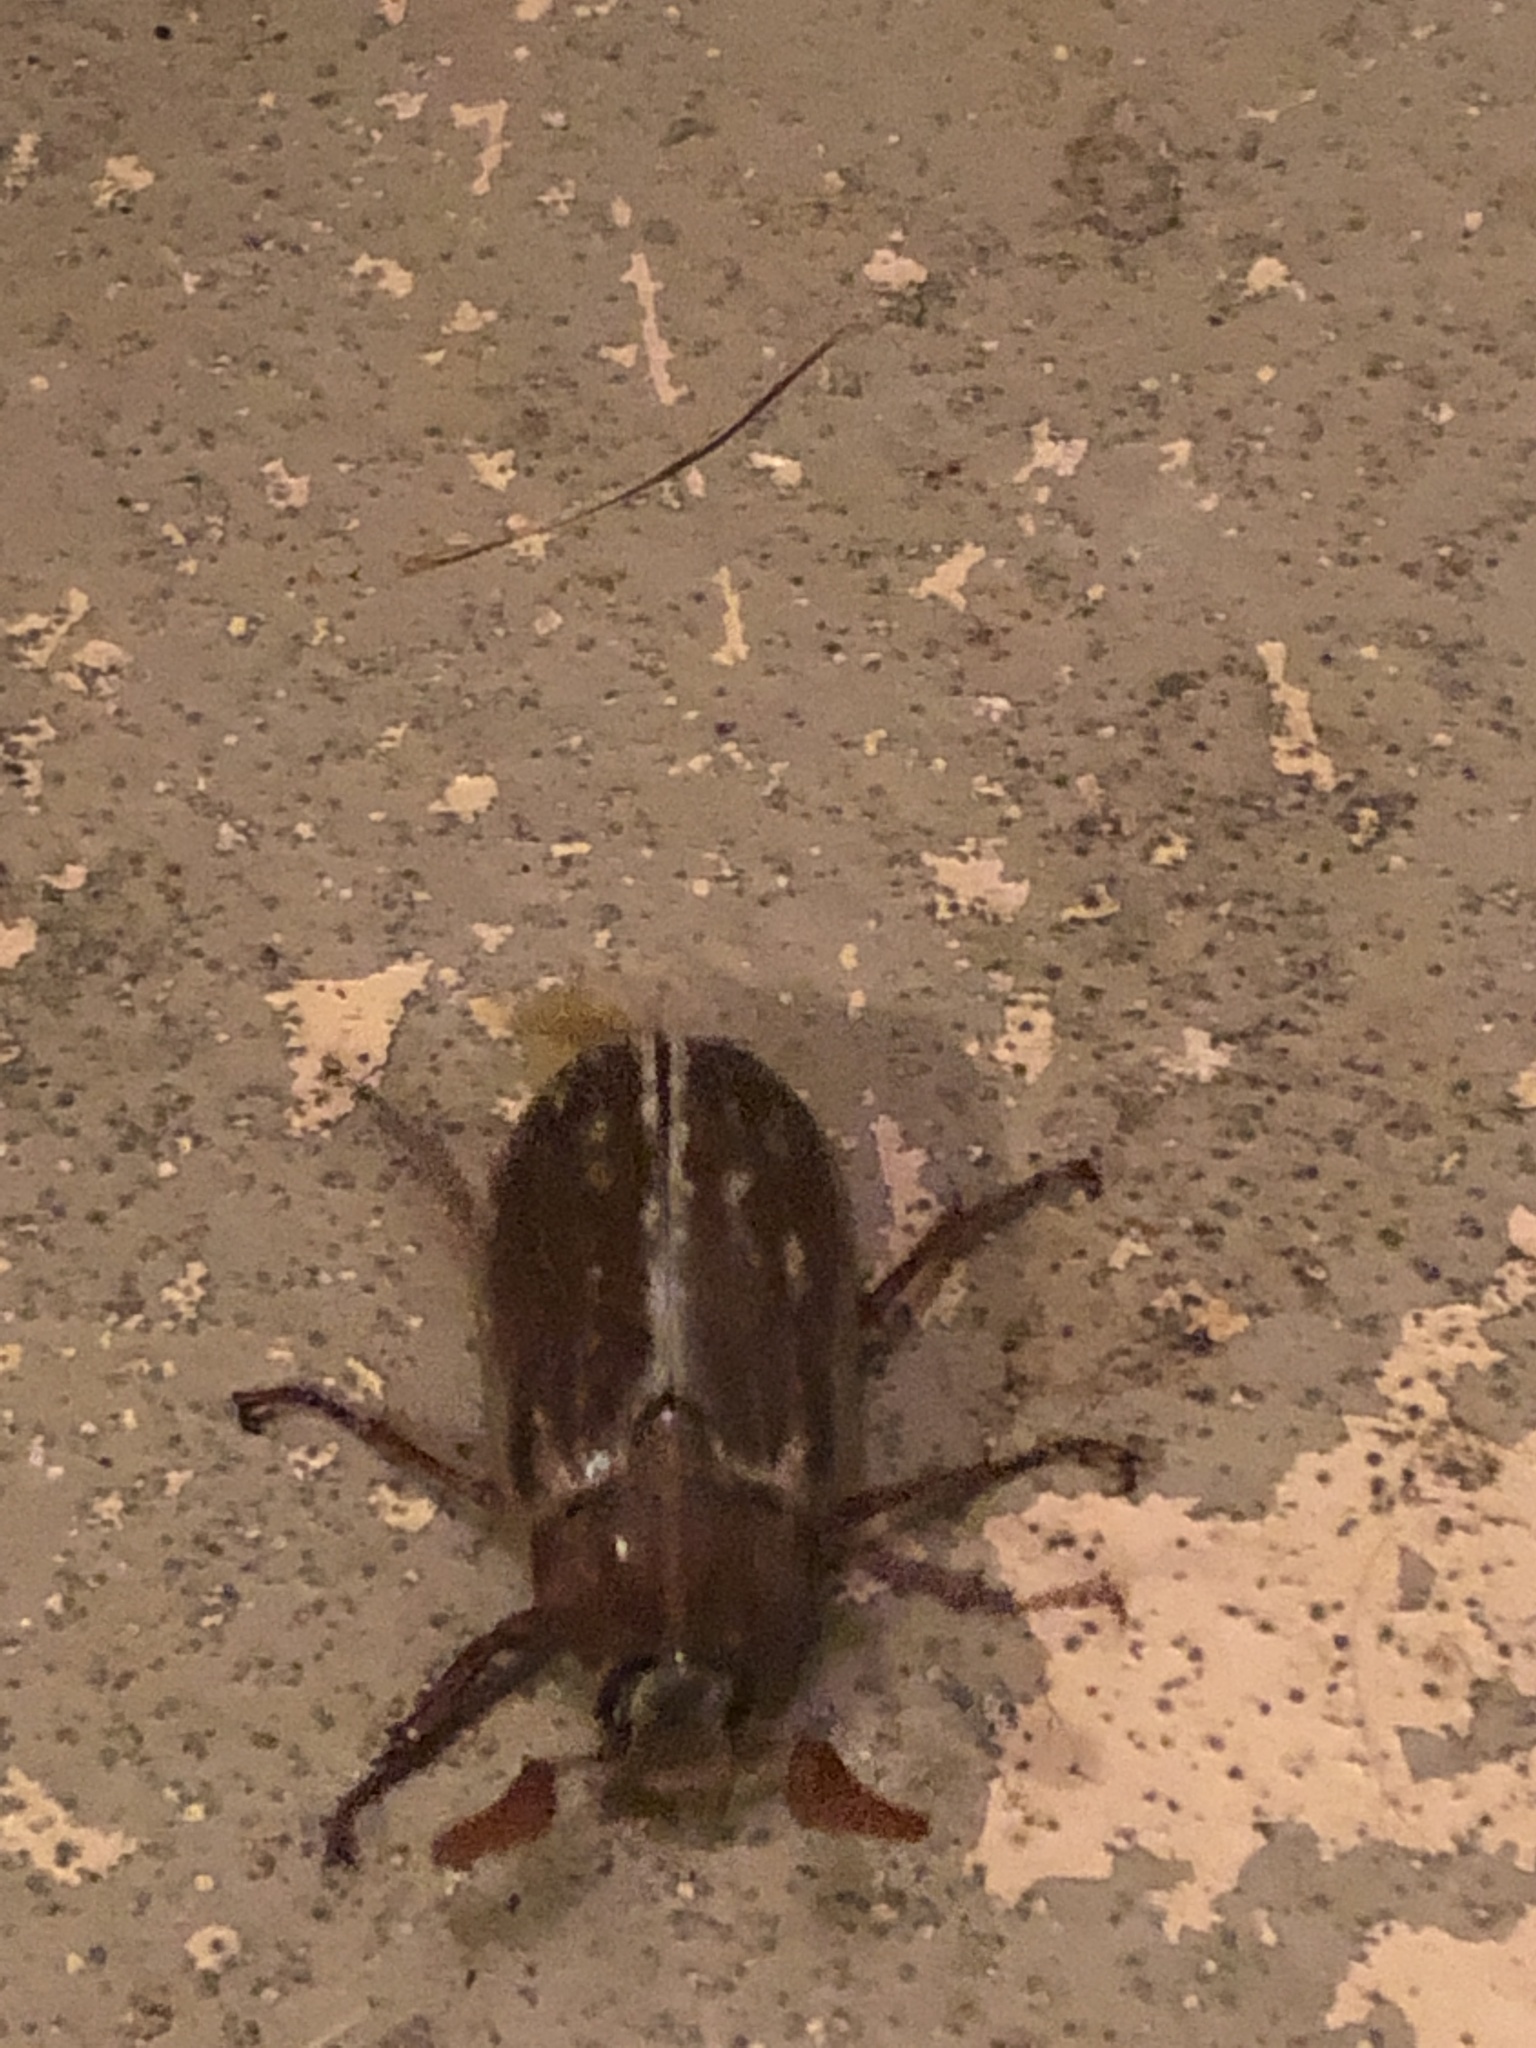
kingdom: Animalia
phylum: Arthropoda
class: Insecta
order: Coleoptera
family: Scarabaeidae
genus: Polyphylla
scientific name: Polyphylla variolosa
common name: Variegated june beetle
